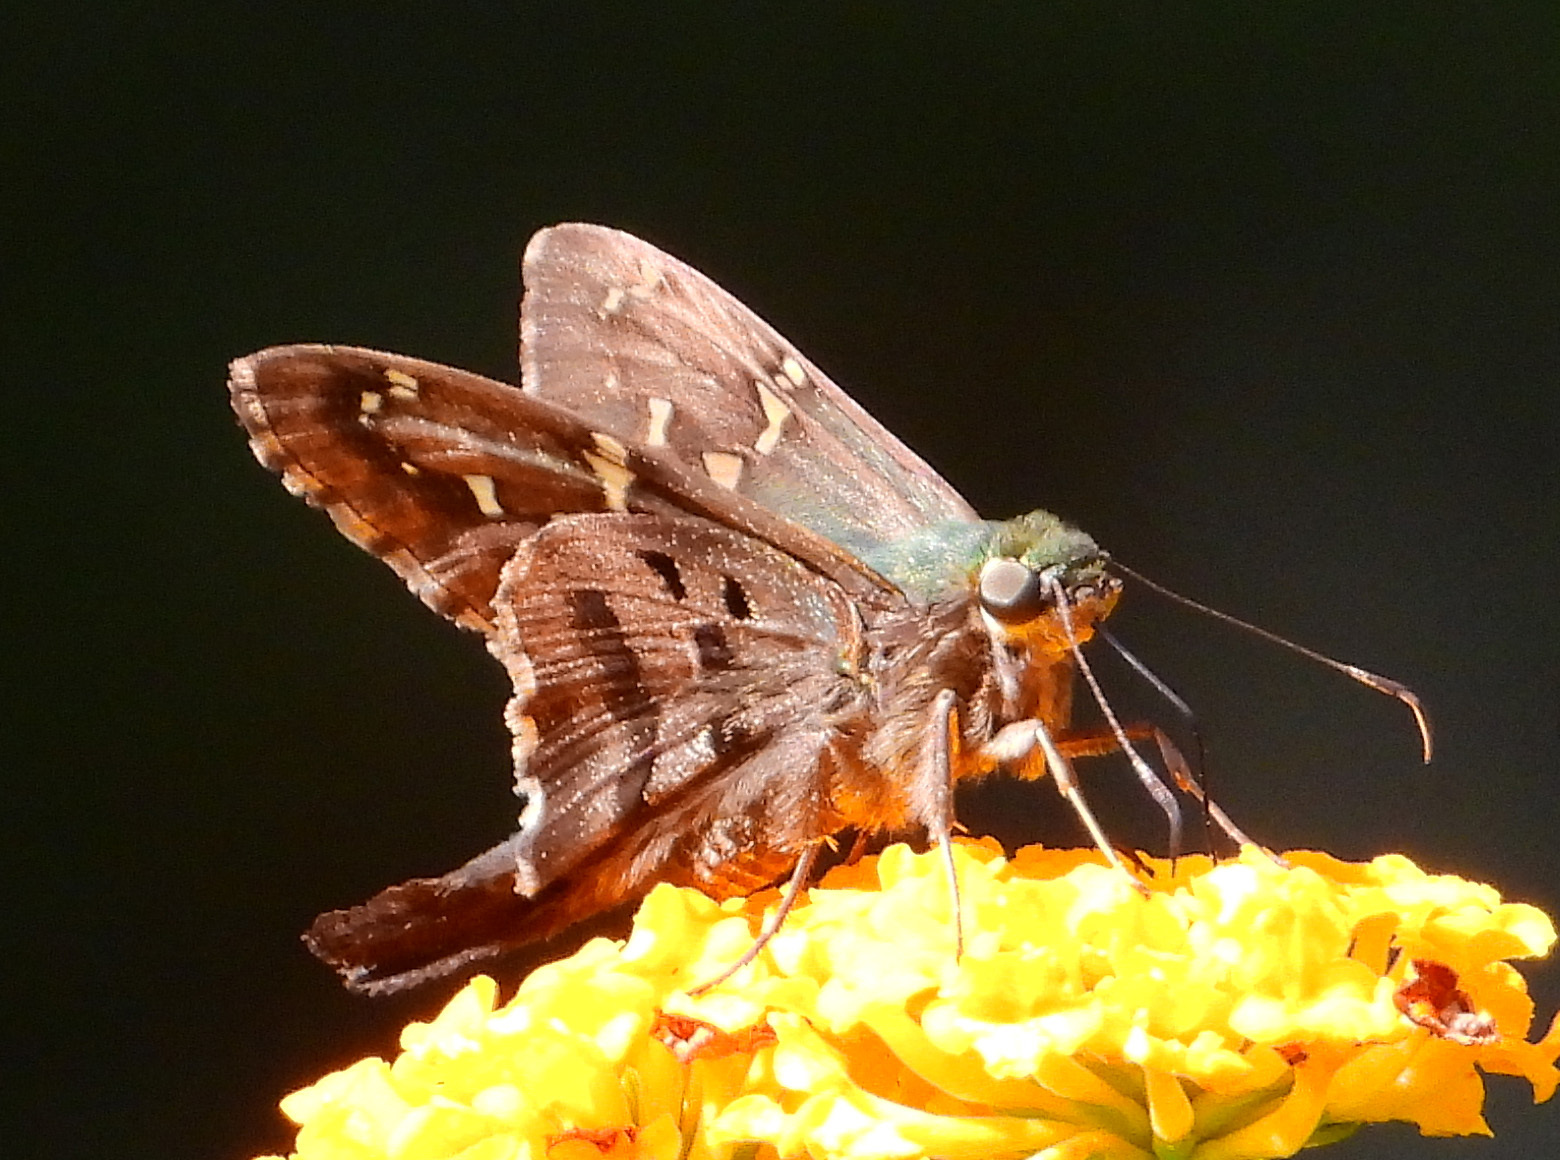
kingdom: Animalia
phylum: Arthropoda
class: Insecta
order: Lepidoptera
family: Hesperiidae
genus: Urbanus
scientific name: Urbanus proteus
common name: Long-tailed skipper
